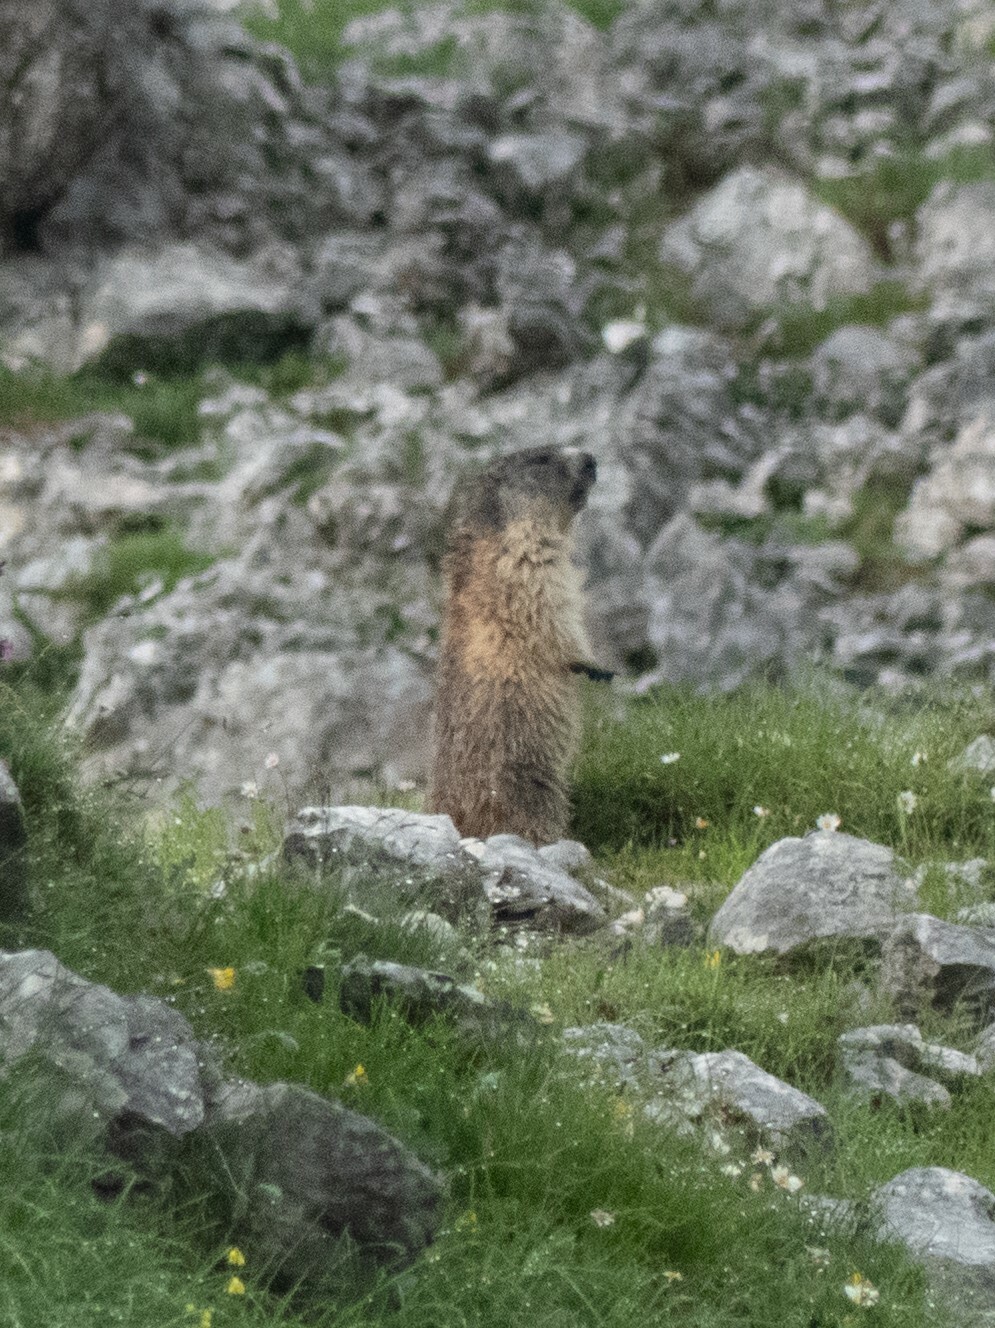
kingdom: Animalia
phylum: Chordata
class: Mammalia
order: Rodentia
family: Sciuridae
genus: Marmota
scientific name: Marmota marmota
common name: Alpine marmot
